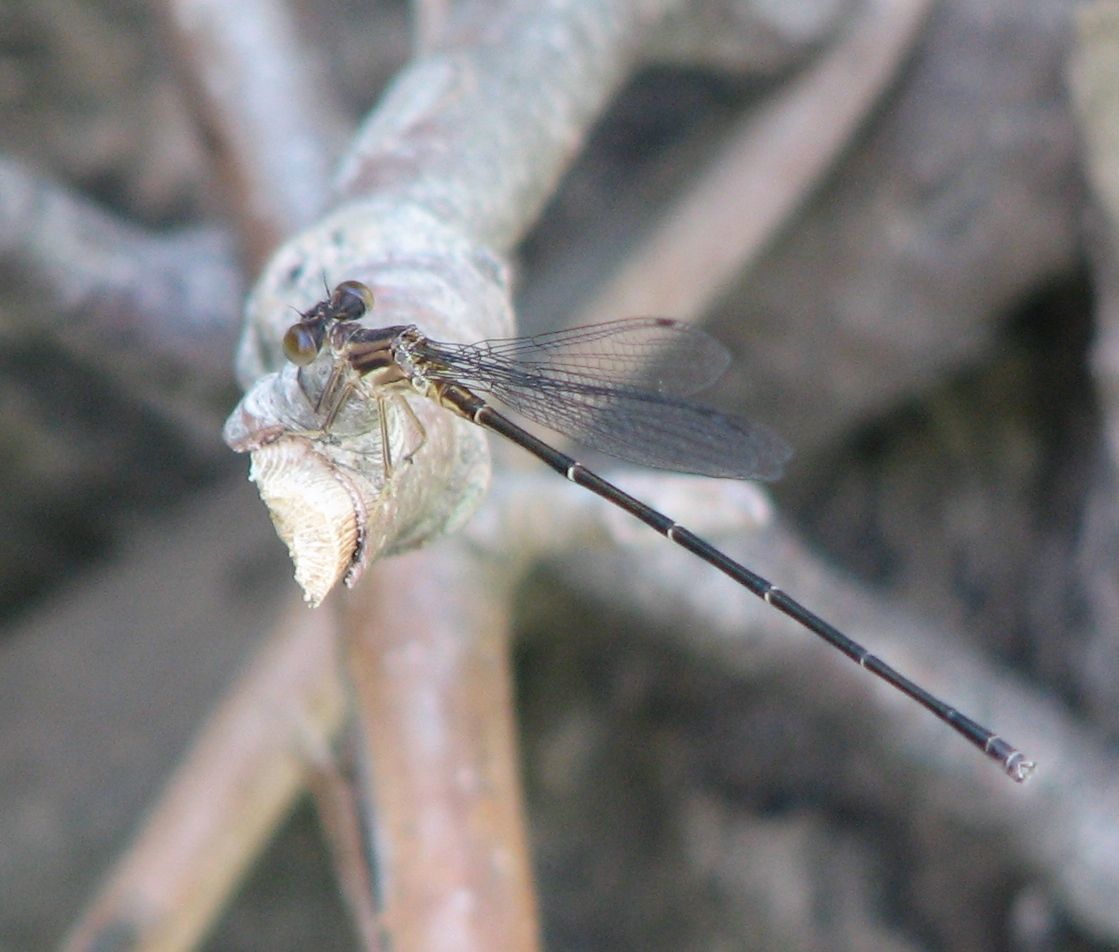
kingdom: Animalia
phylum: Arthropoda
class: Insecta
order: Odonata
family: Coenagrionidae
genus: Argia
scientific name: Argia moesta
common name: Powdered dancer
